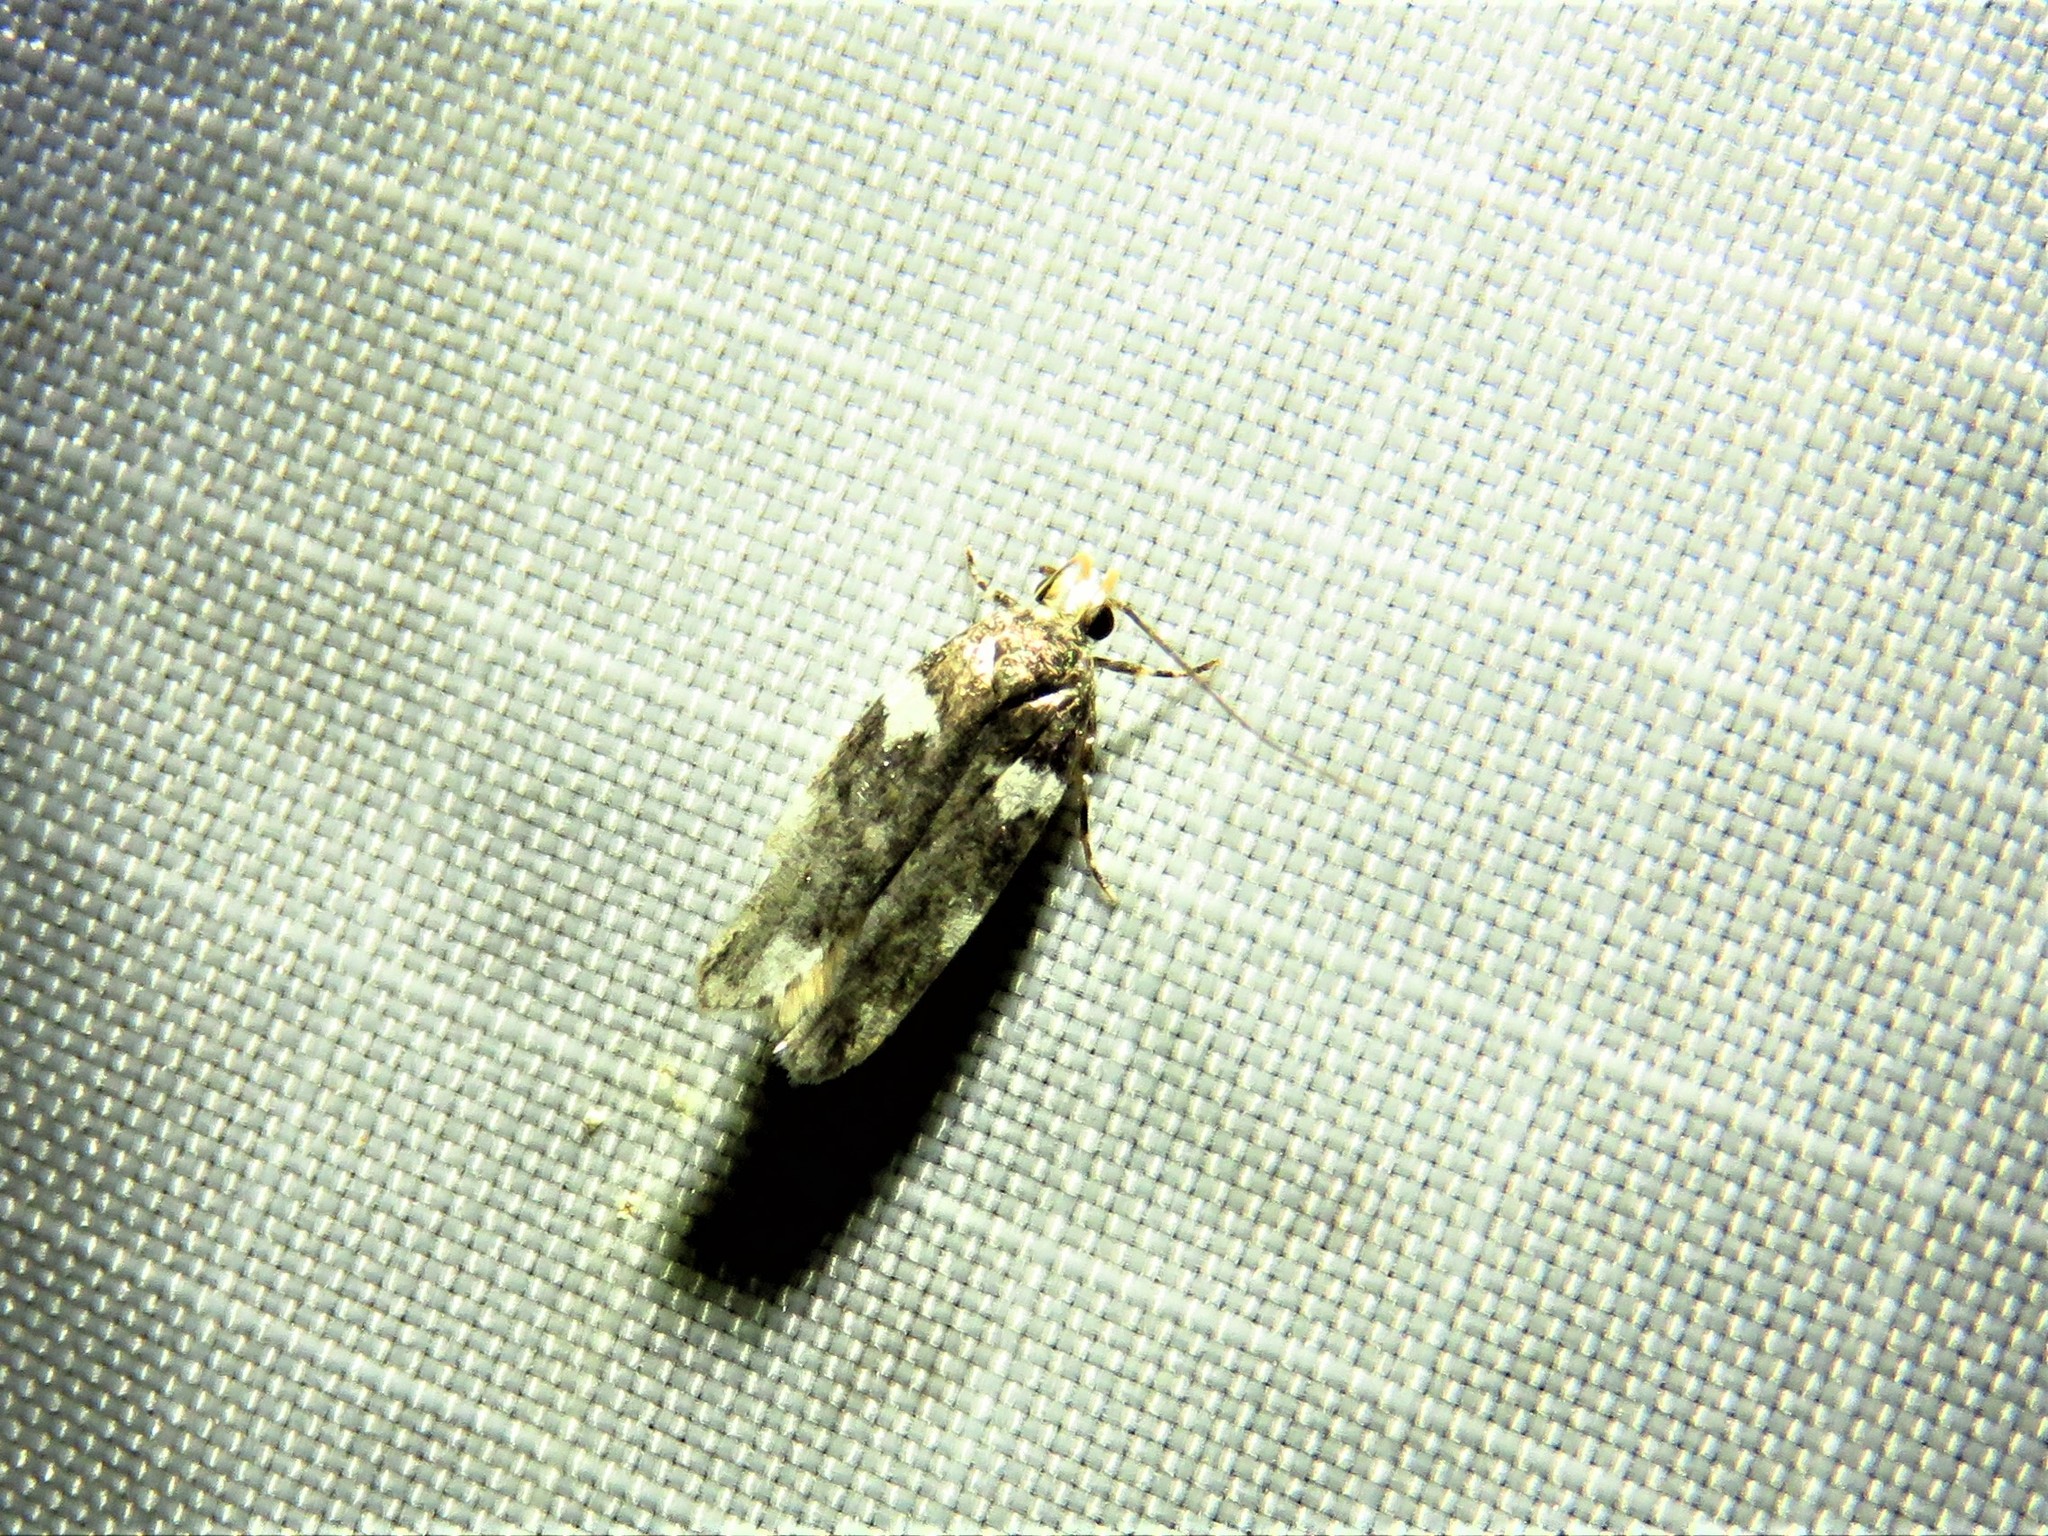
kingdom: Animalia
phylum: Arthropoda
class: Insecta
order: Lepidoptera
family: Gelechiidae
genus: Fascista
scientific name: Fascista cercerisella
